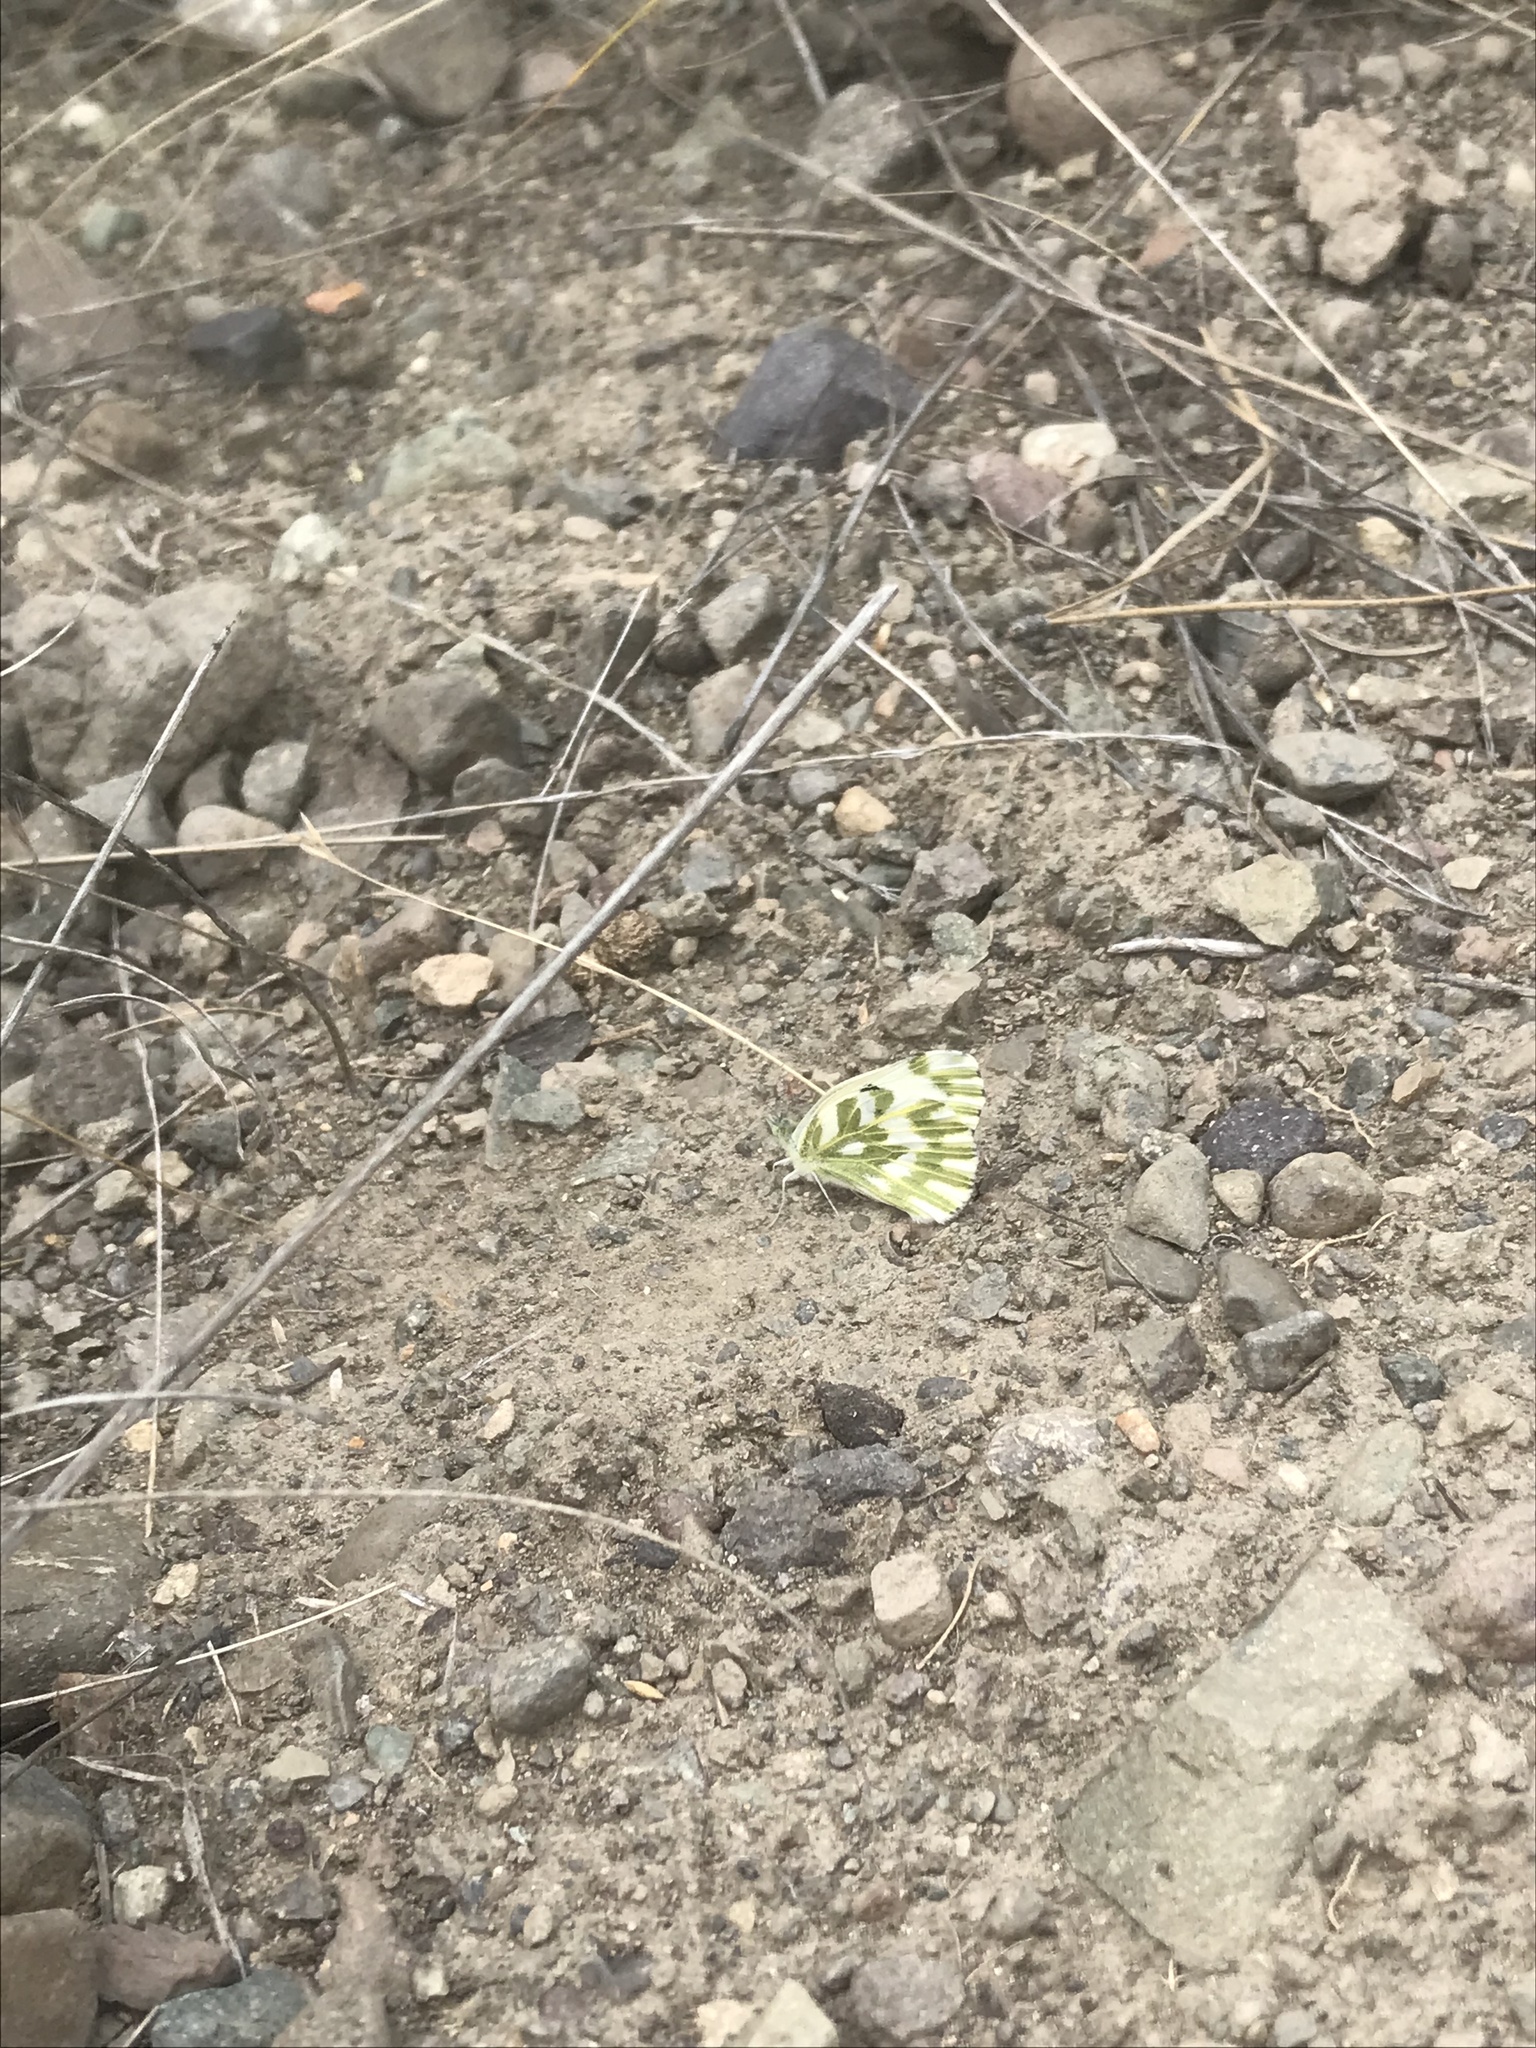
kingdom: Animalia
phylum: Arthropoda
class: Insecta
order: Lepidoptera
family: Pieridae
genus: Pontia
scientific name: Pontia beckerii
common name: Becker's white
